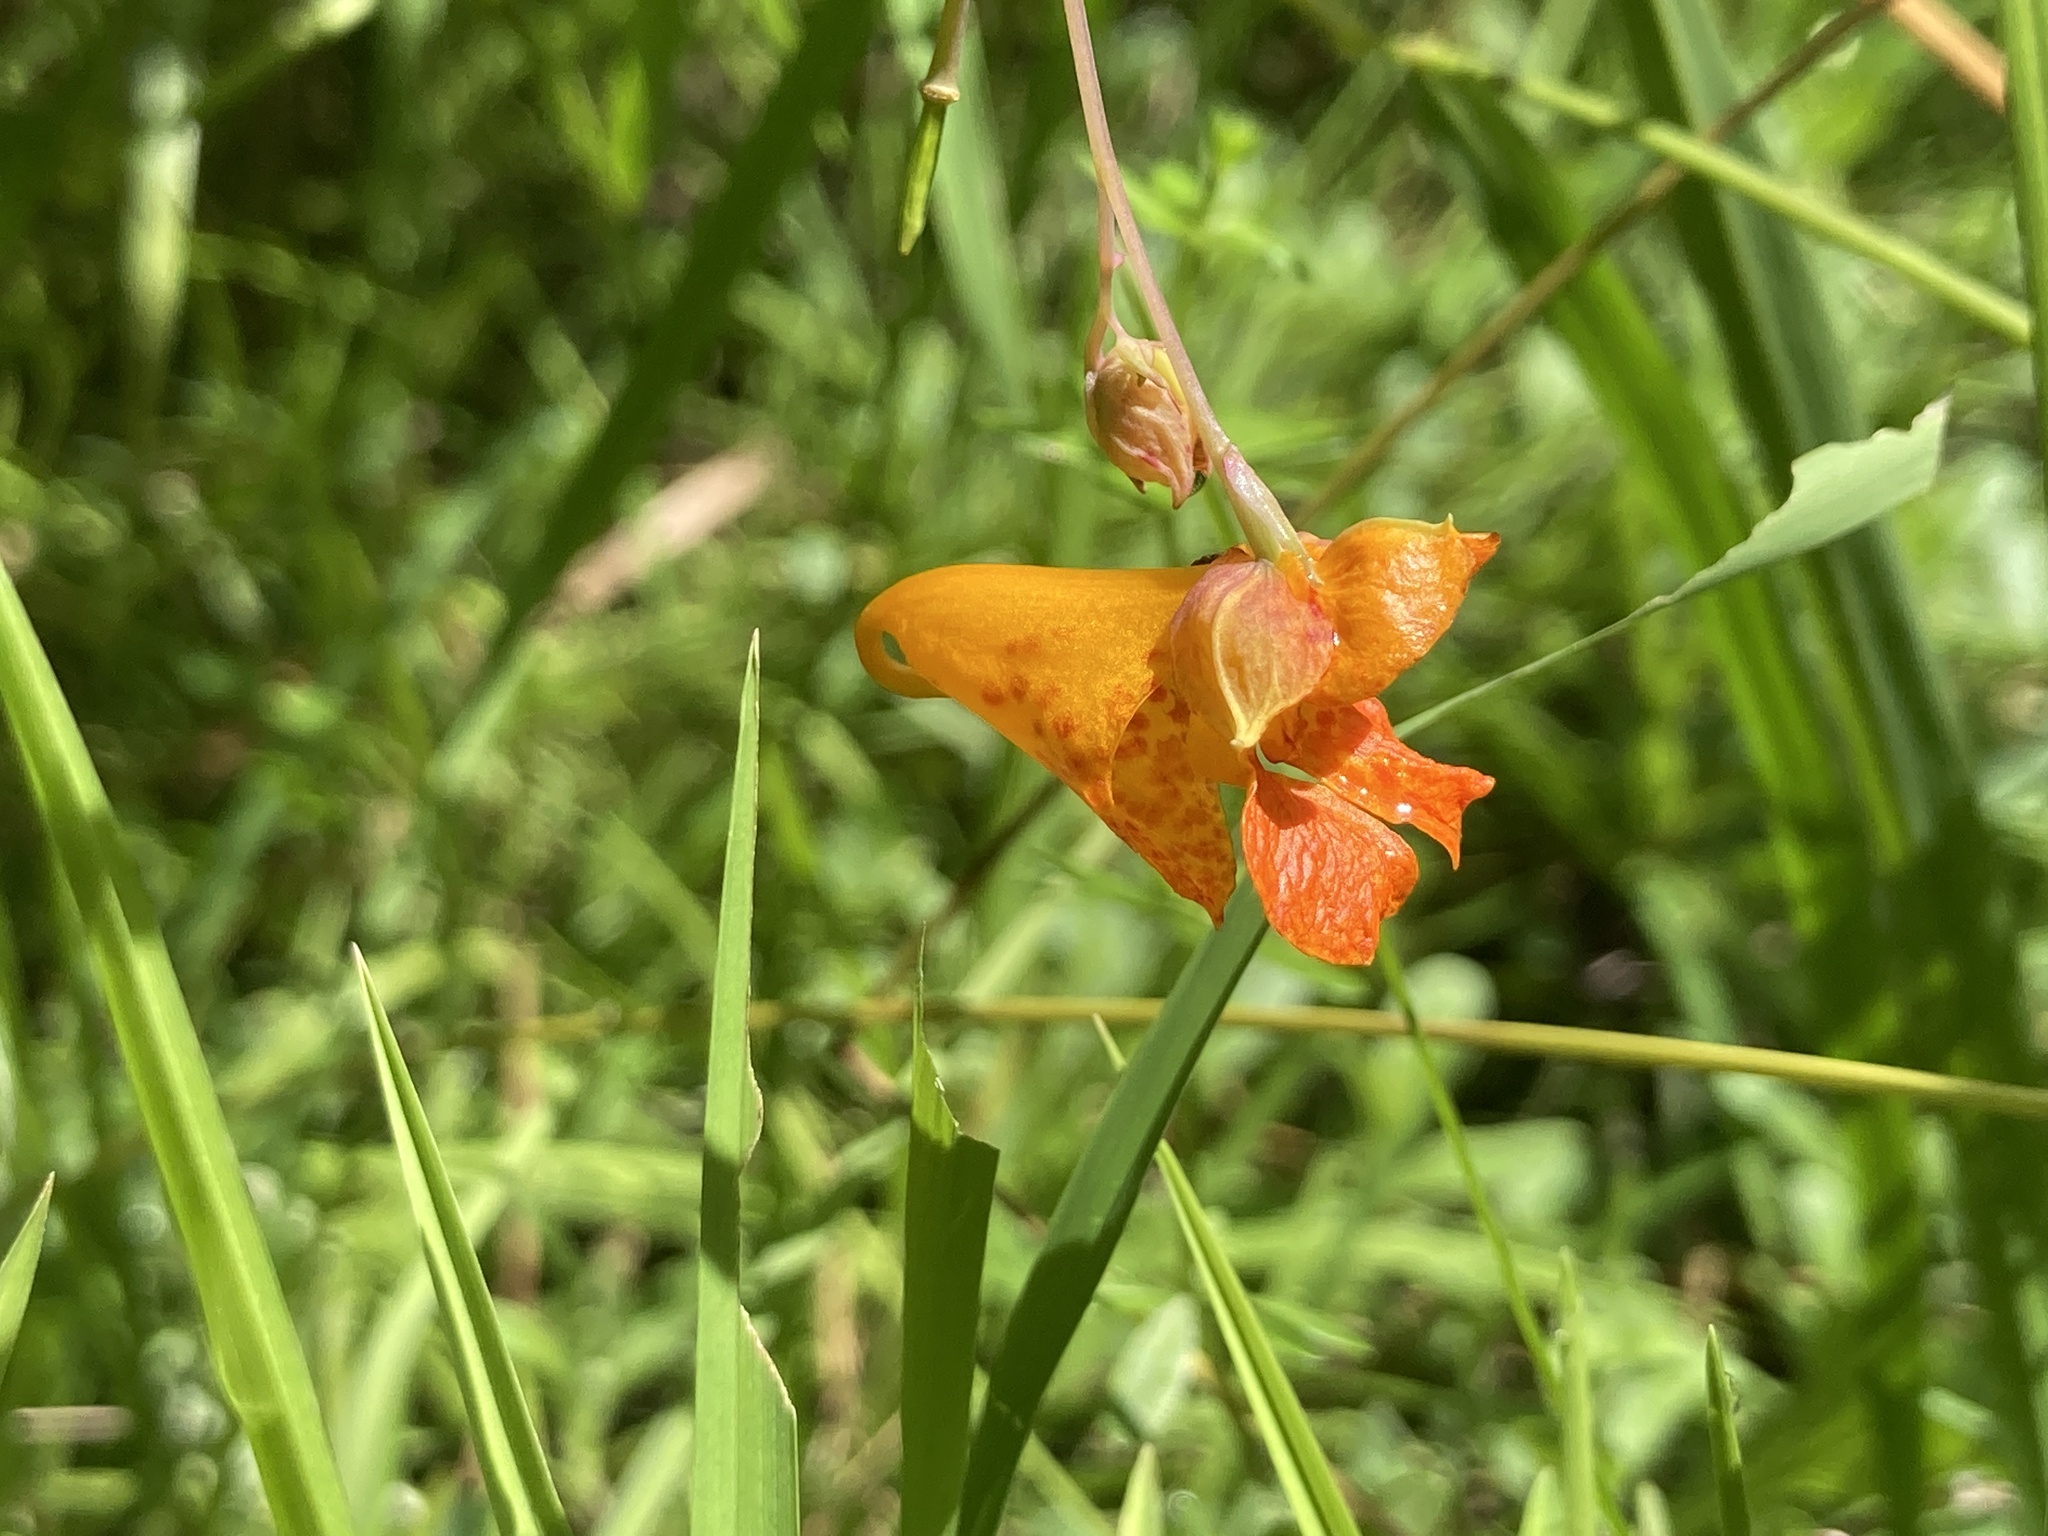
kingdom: Plantae
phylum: Tracheophyta
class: Magnoliopsida
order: Ericales
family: Balsaminaceae
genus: Impatiens
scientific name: Impatiens capensis
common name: Orange balsam
